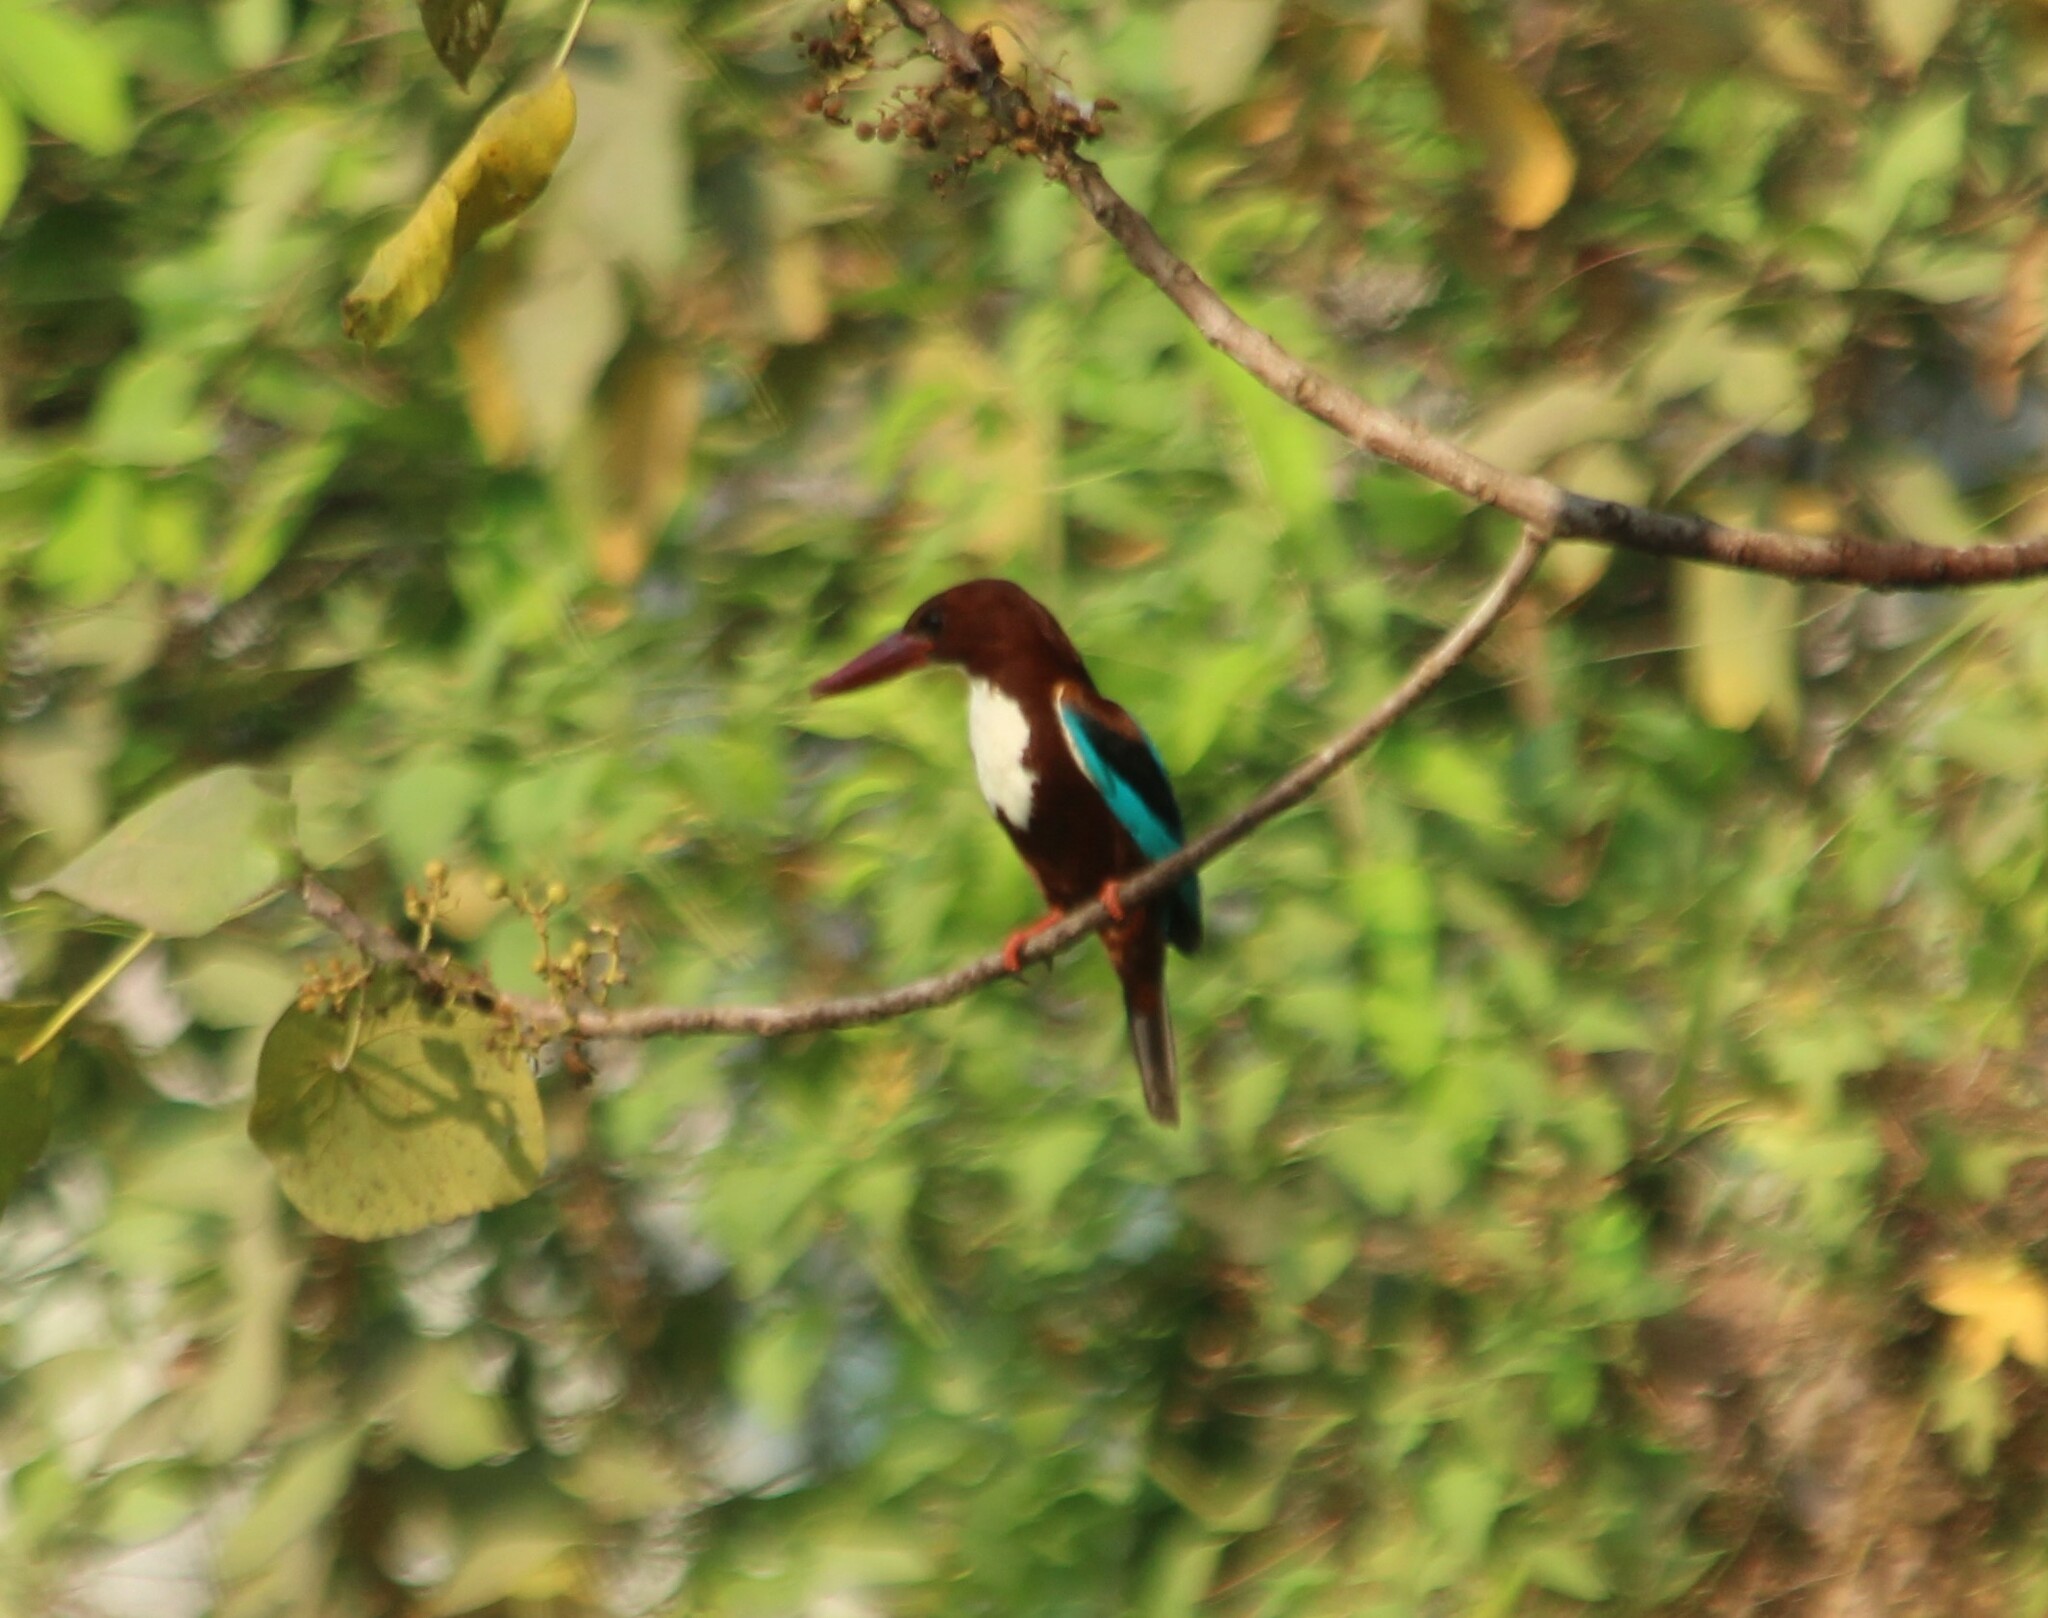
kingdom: Animalia
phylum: Chordata
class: Aves
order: Coraciiformes
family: Alcedinidae
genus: Halcyon
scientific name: Halcyon smyrnensis
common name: White-throated kingfisher
